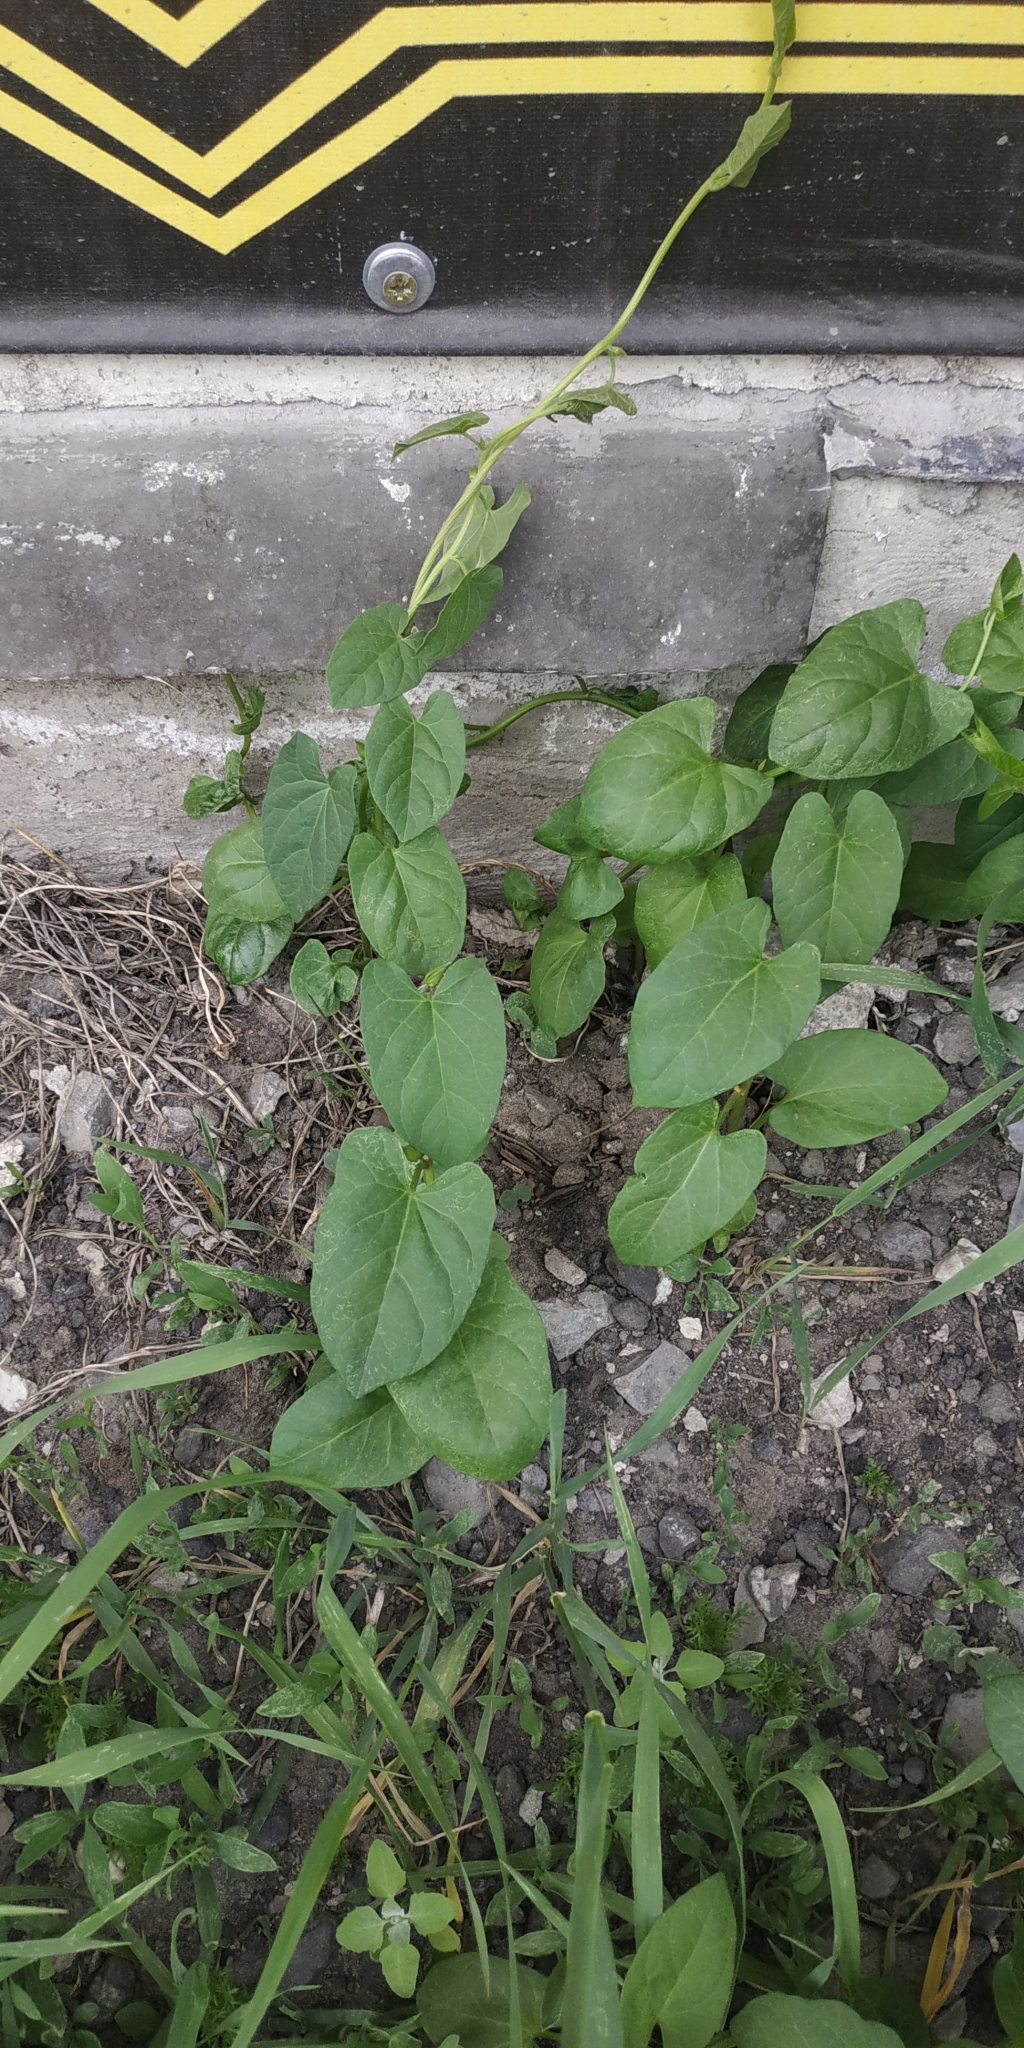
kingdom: Plantae
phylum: Tracheophyta
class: Magnoliopsida
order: Solanales
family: Convolvulaceae
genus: Convolvulus
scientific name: Convolvulus arvensis
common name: Field bindweed
